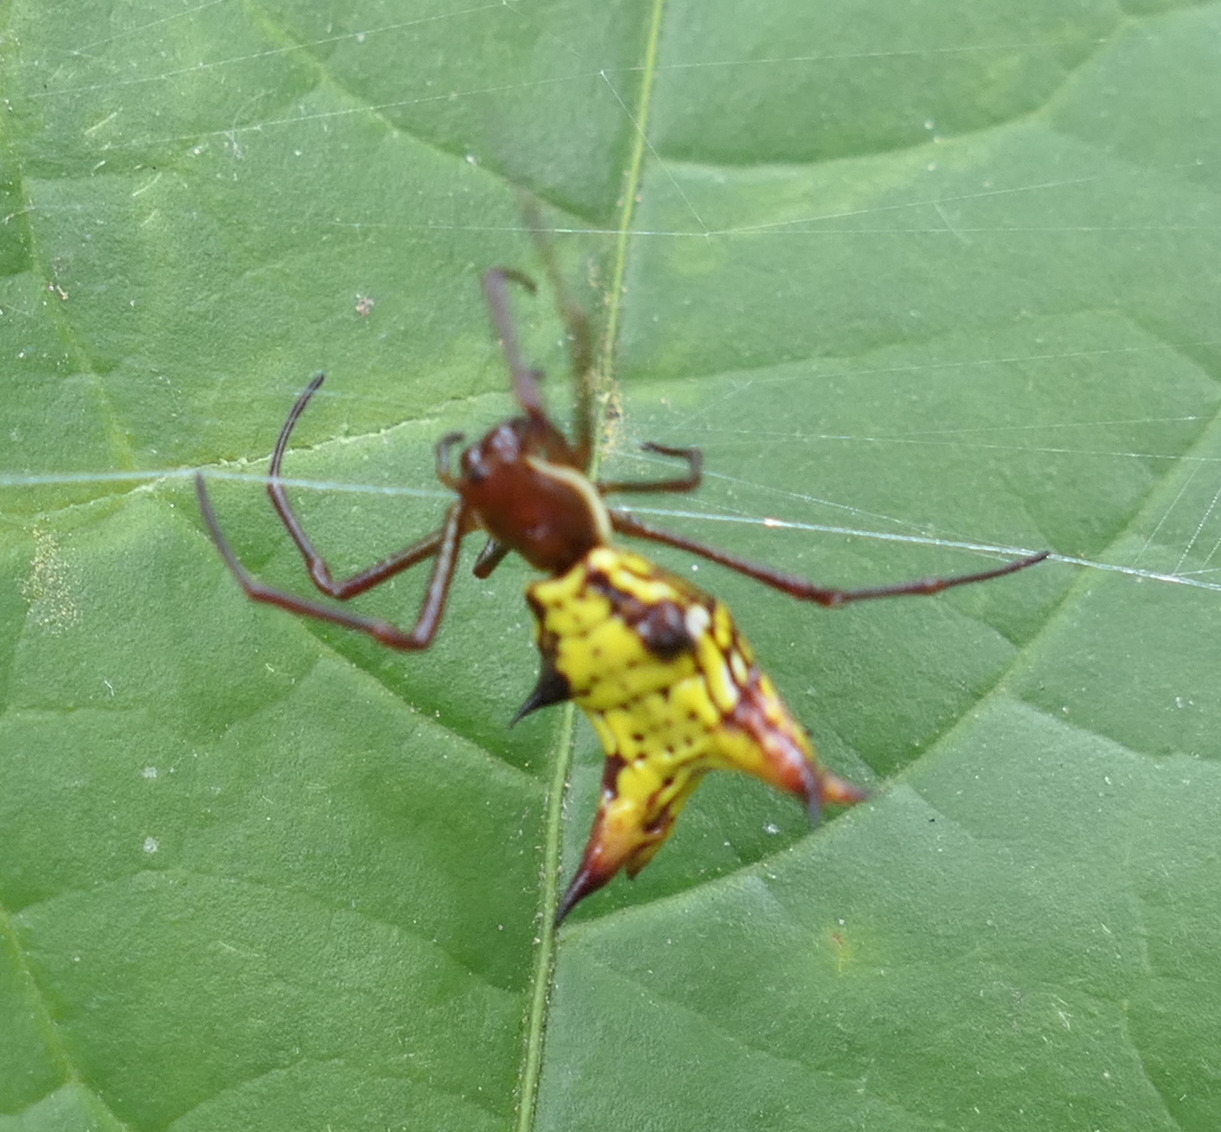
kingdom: Animalia
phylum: Arthropoda
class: Arachnida
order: Araneae
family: Araneidae
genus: Micrathena
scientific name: Micrathena fissispina
